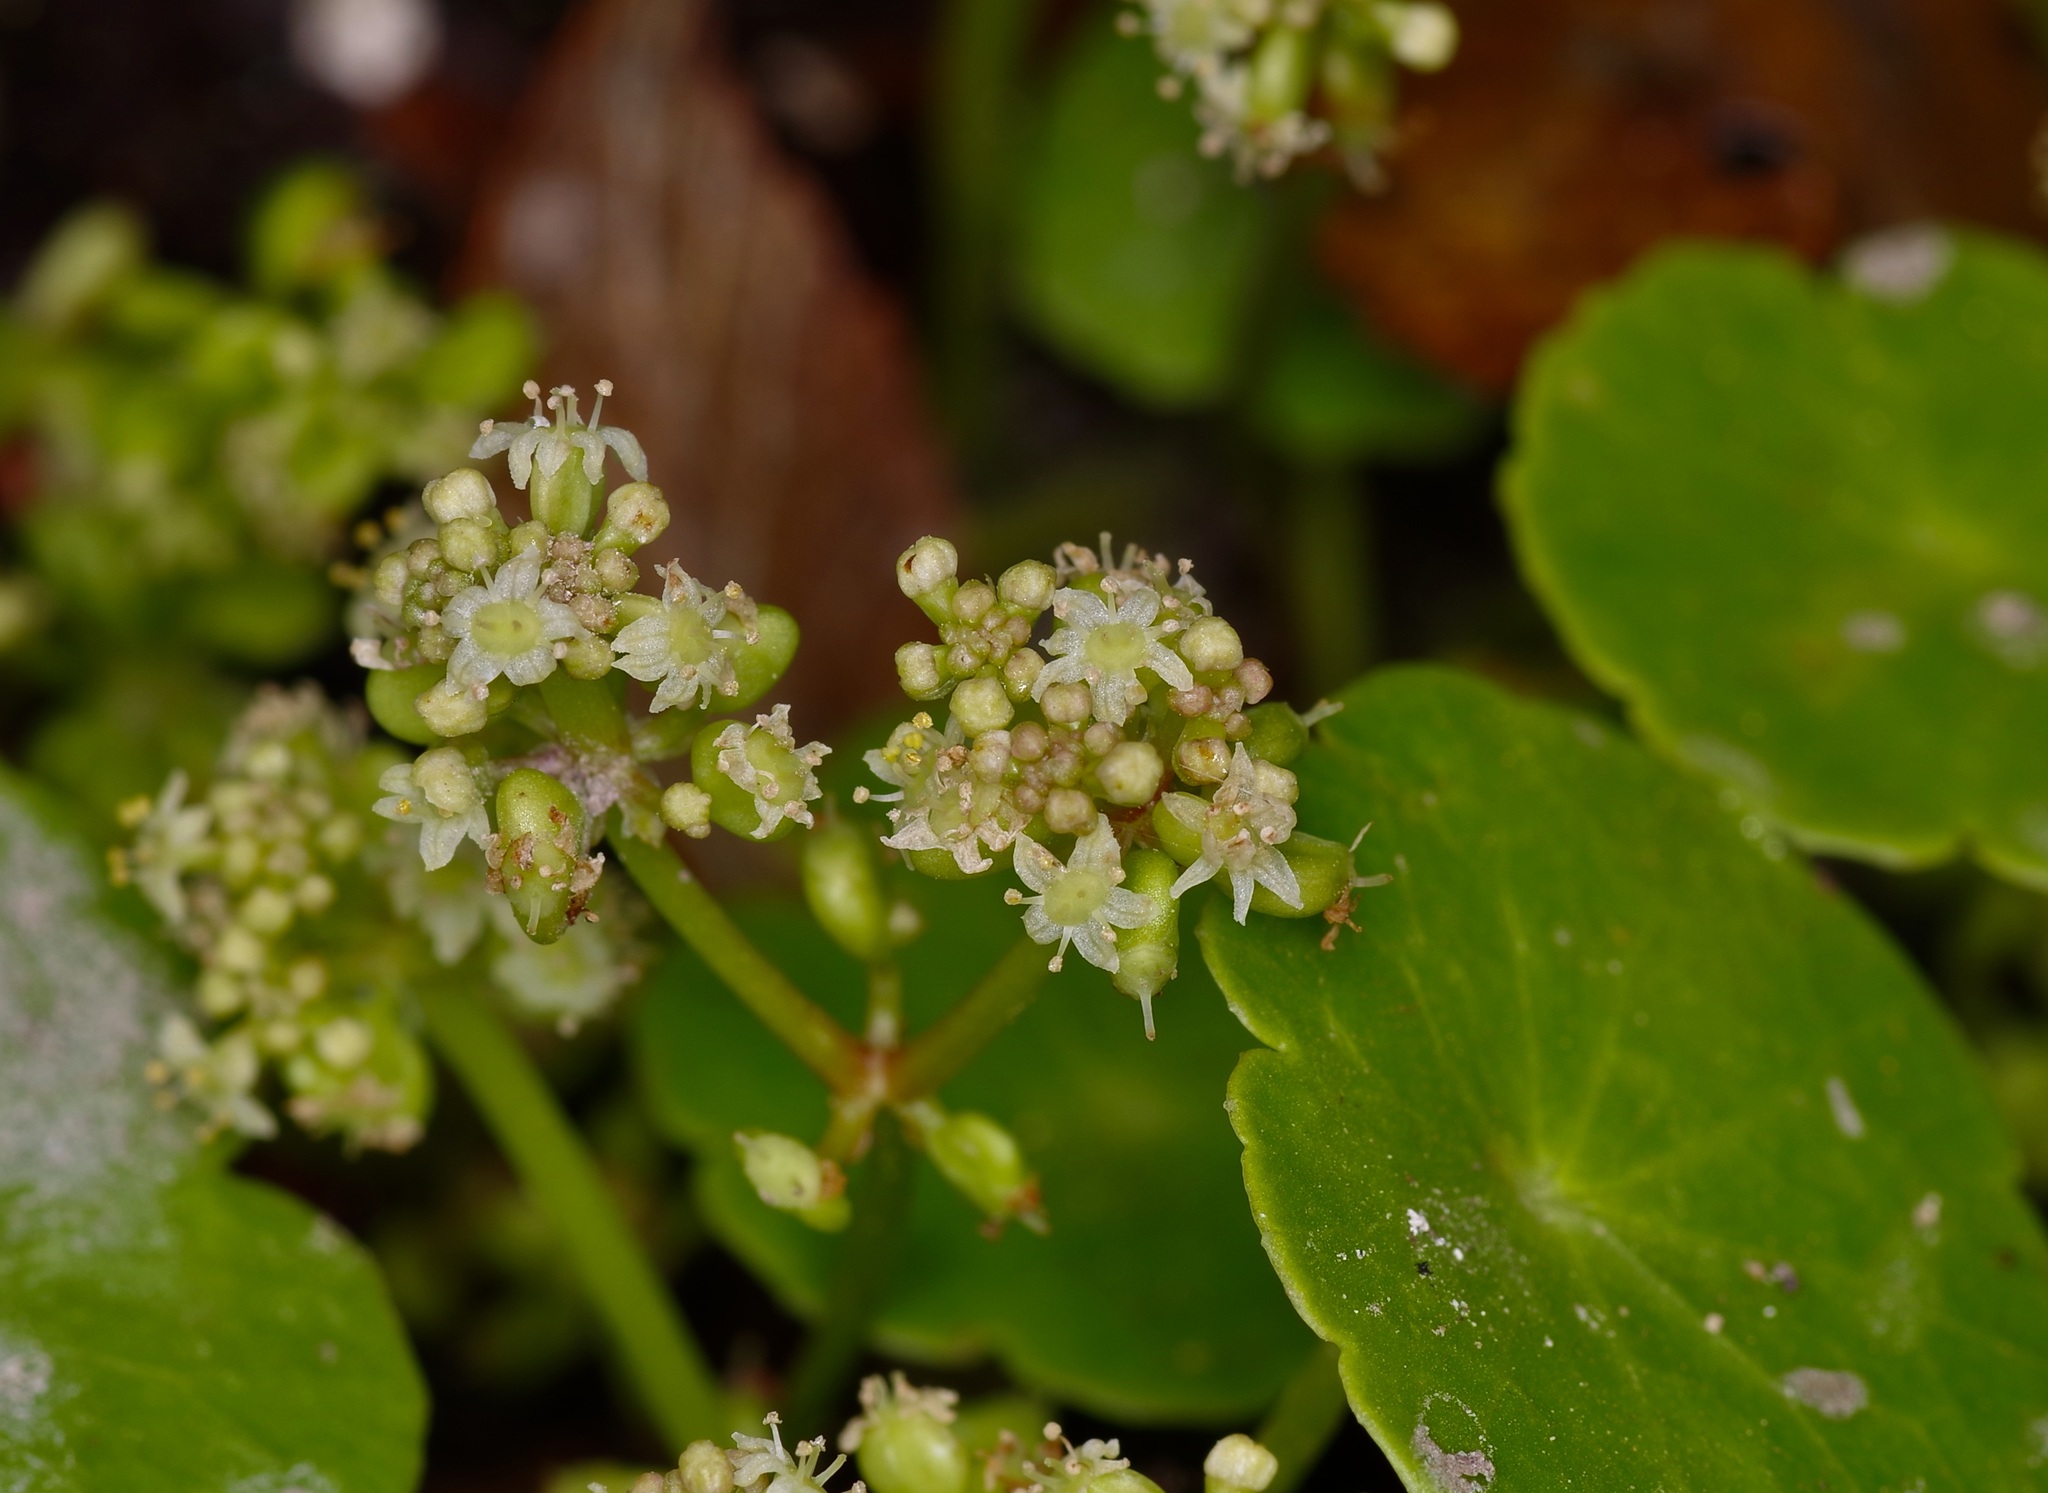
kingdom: Plantae
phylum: Tracheophyta
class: Magnoliopsida
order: Apiales
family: Araliaceae
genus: Hydrocotyle
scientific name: Hydrocotyle bonariensis
